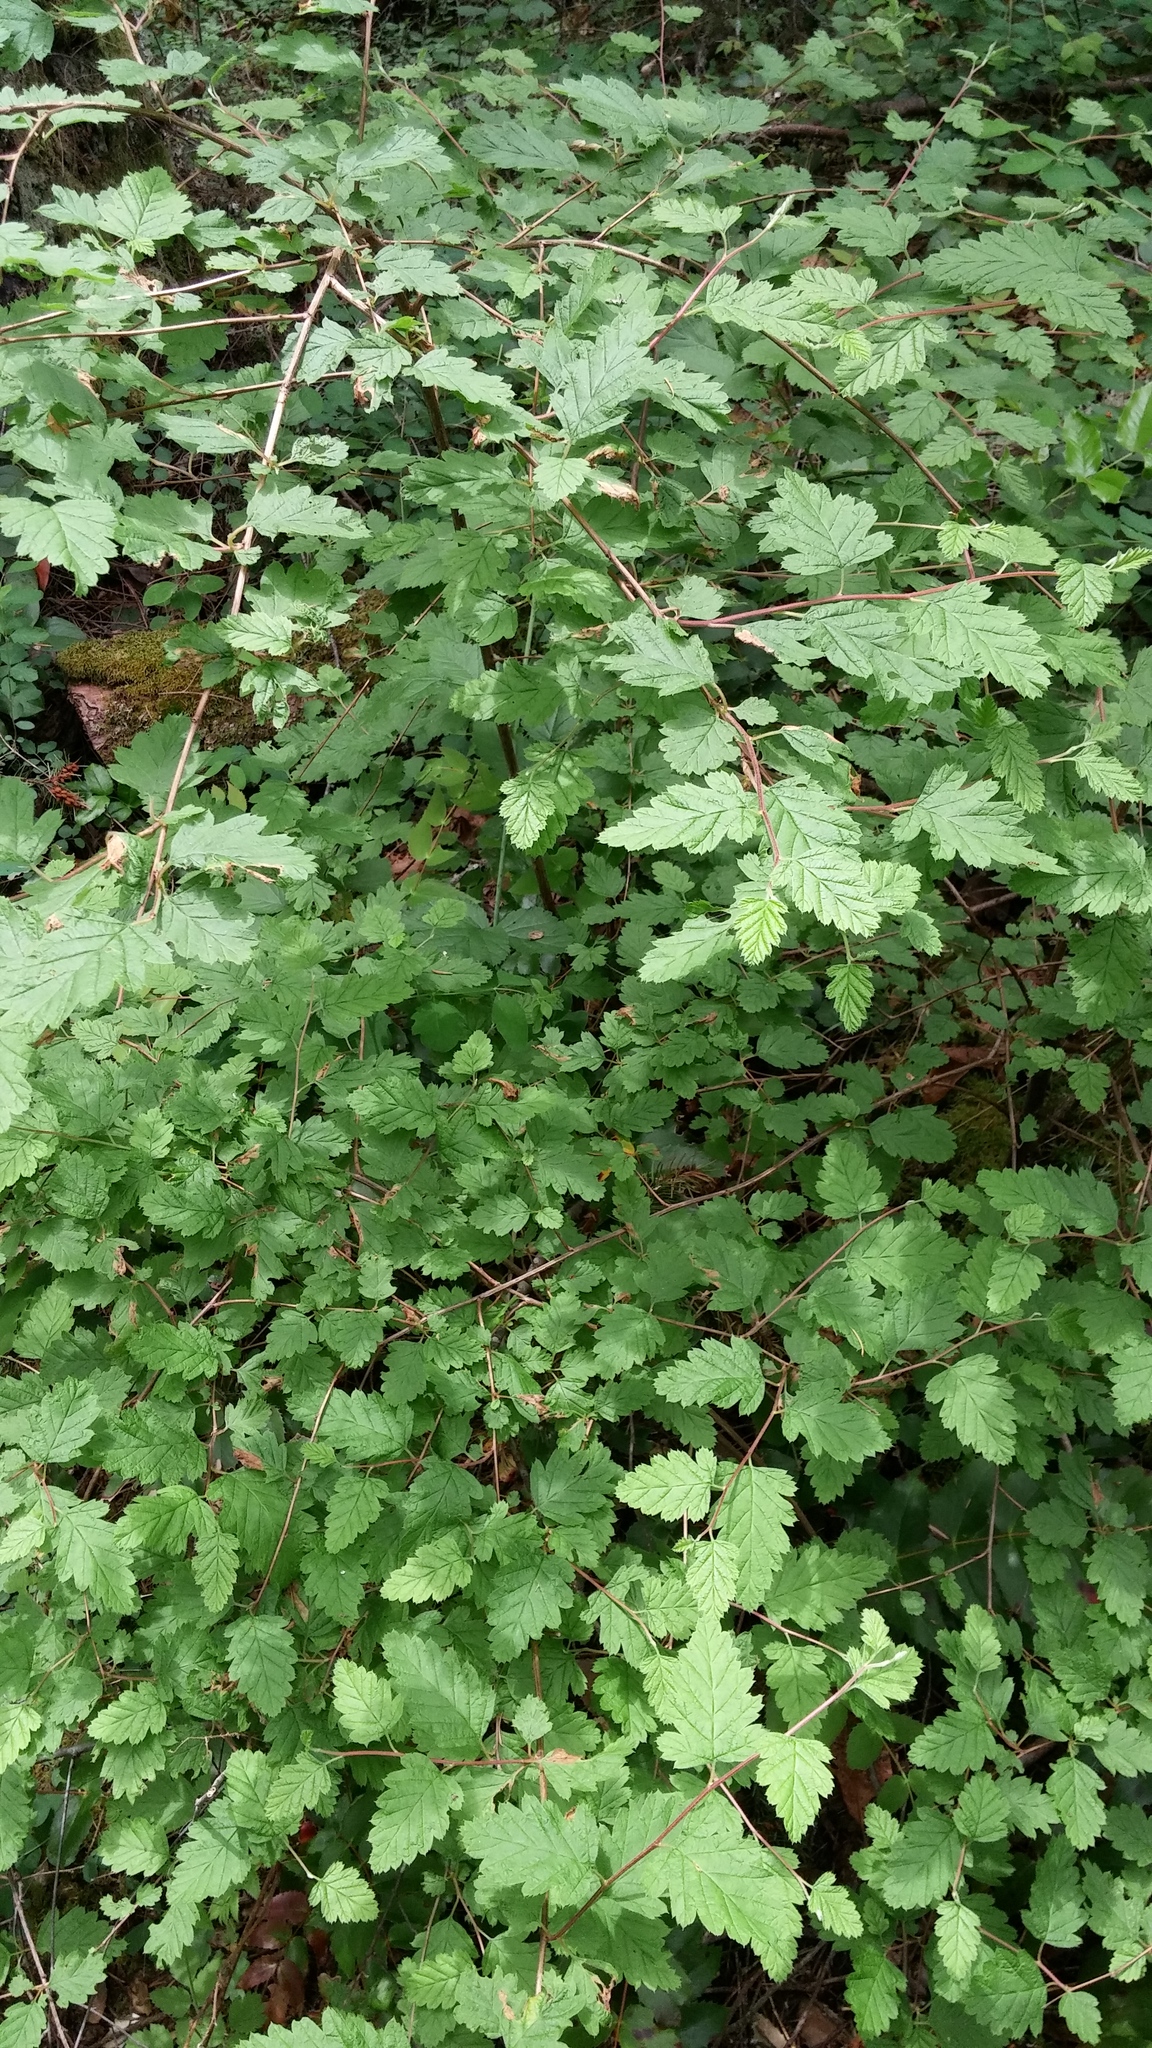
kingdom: Plantae
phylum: Tracheophyta
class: Magnoliopsida
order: Rosales
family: Rosaceae
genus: Holodiscus
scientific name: Holodiscus discolor
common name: Oceanspray
